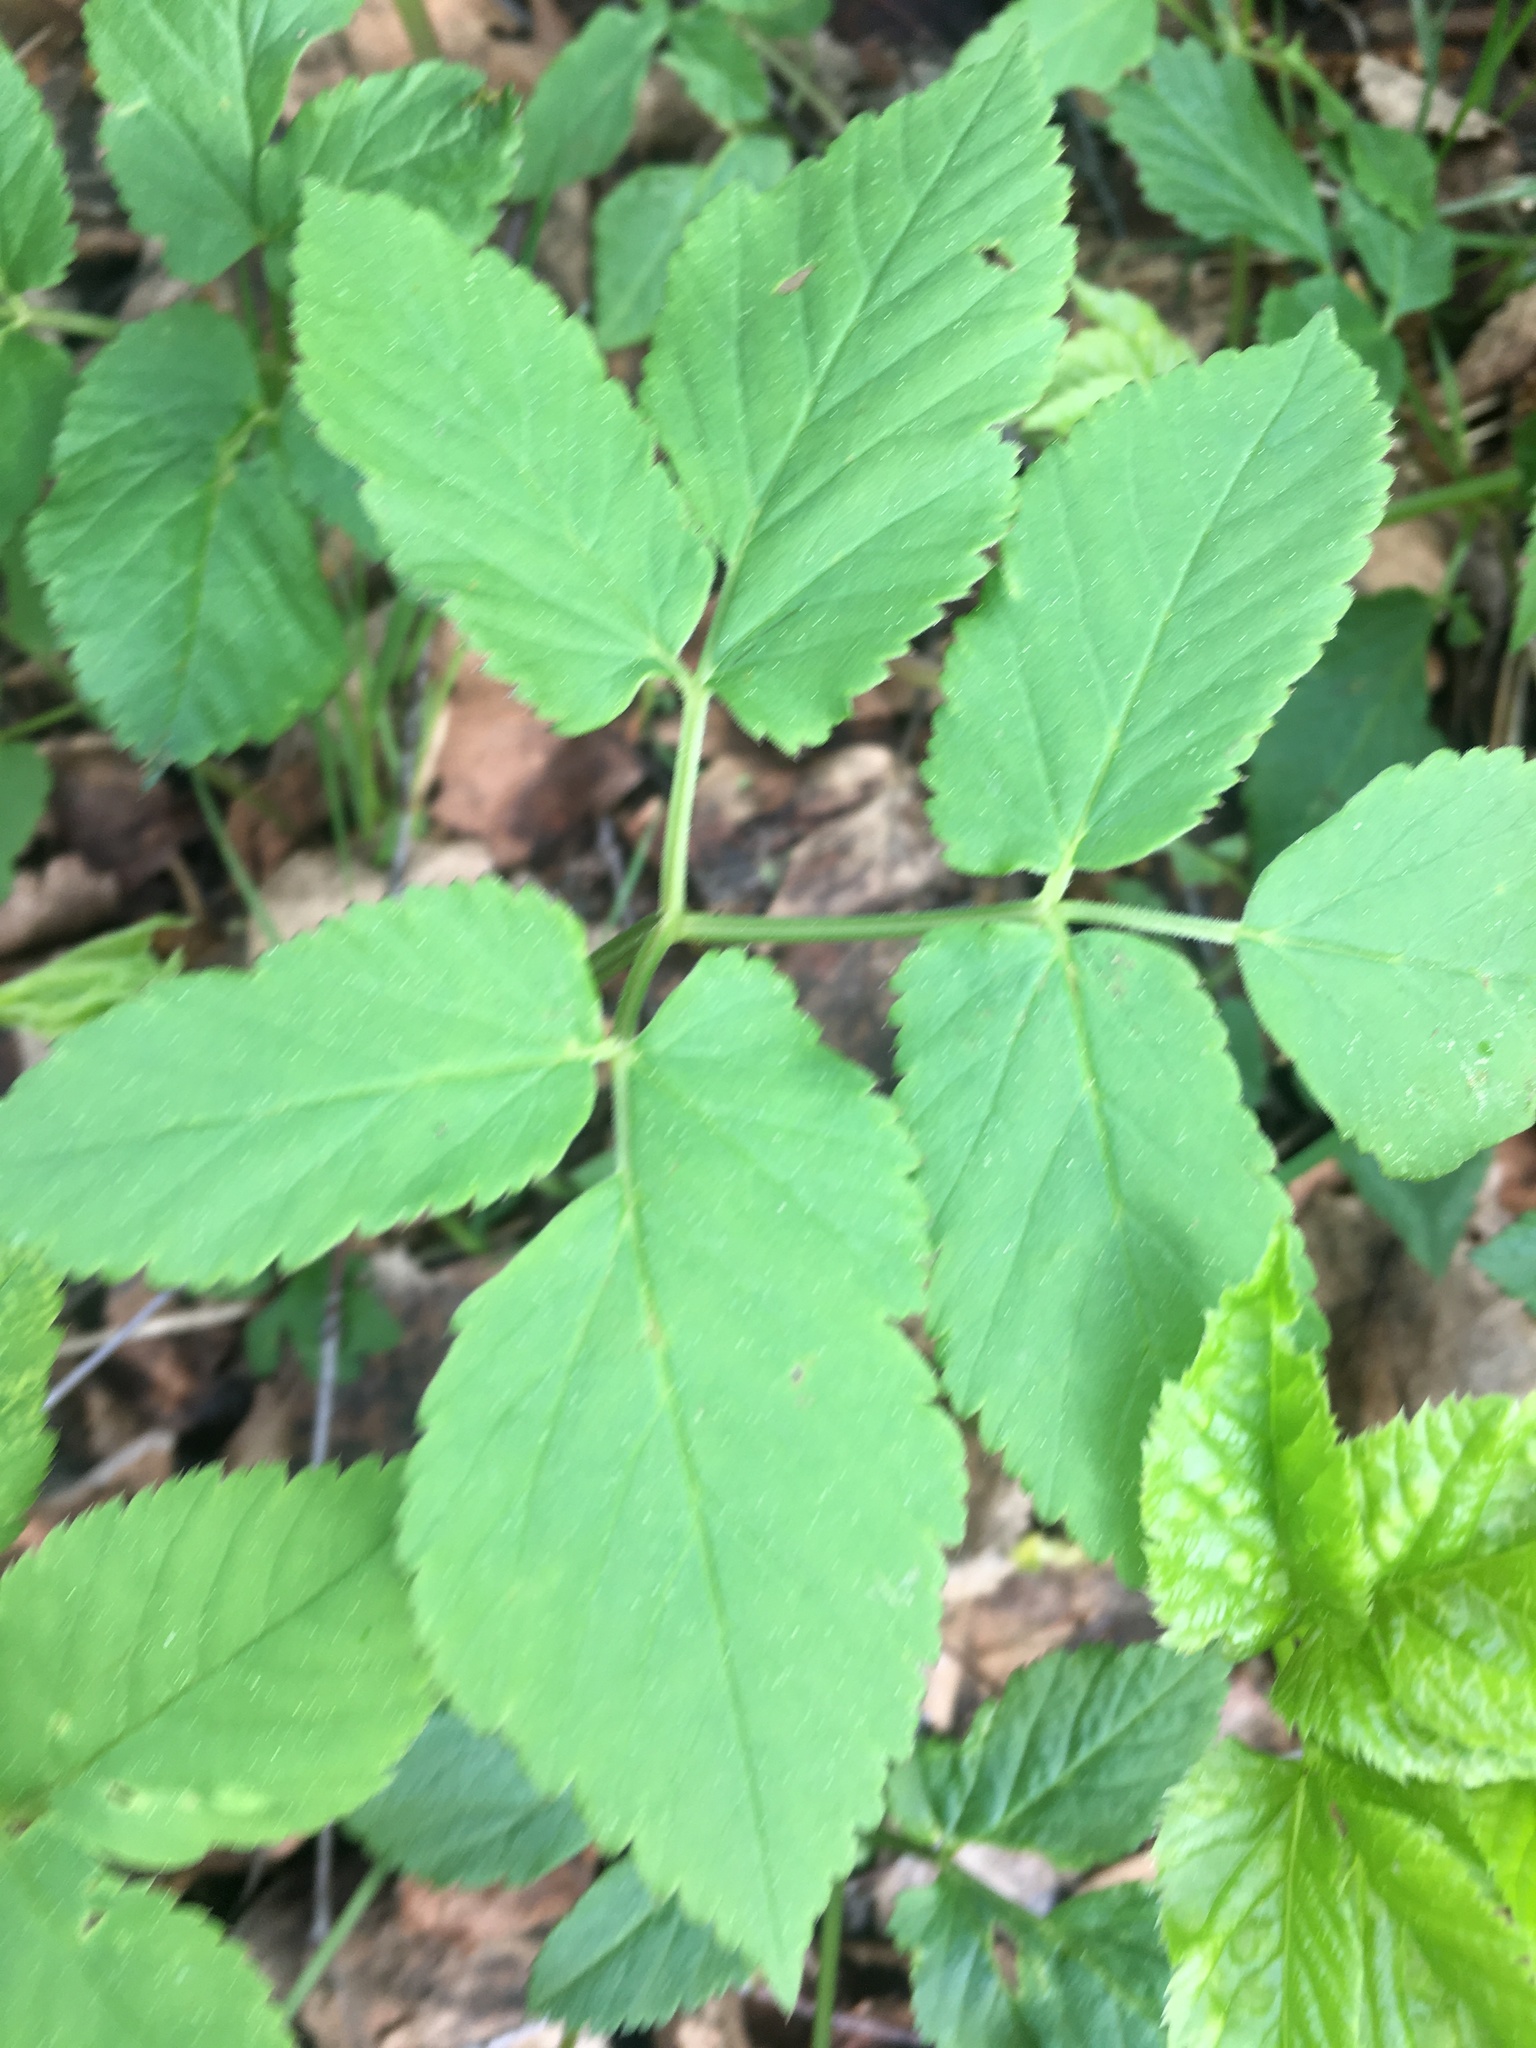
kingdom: Plantae
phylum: Tracheophyta
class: Magnoliopsida
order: Apiales
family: Apiaceae
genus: Aegopodium
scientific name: Aegopodium podagraria
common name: Ground-elder
